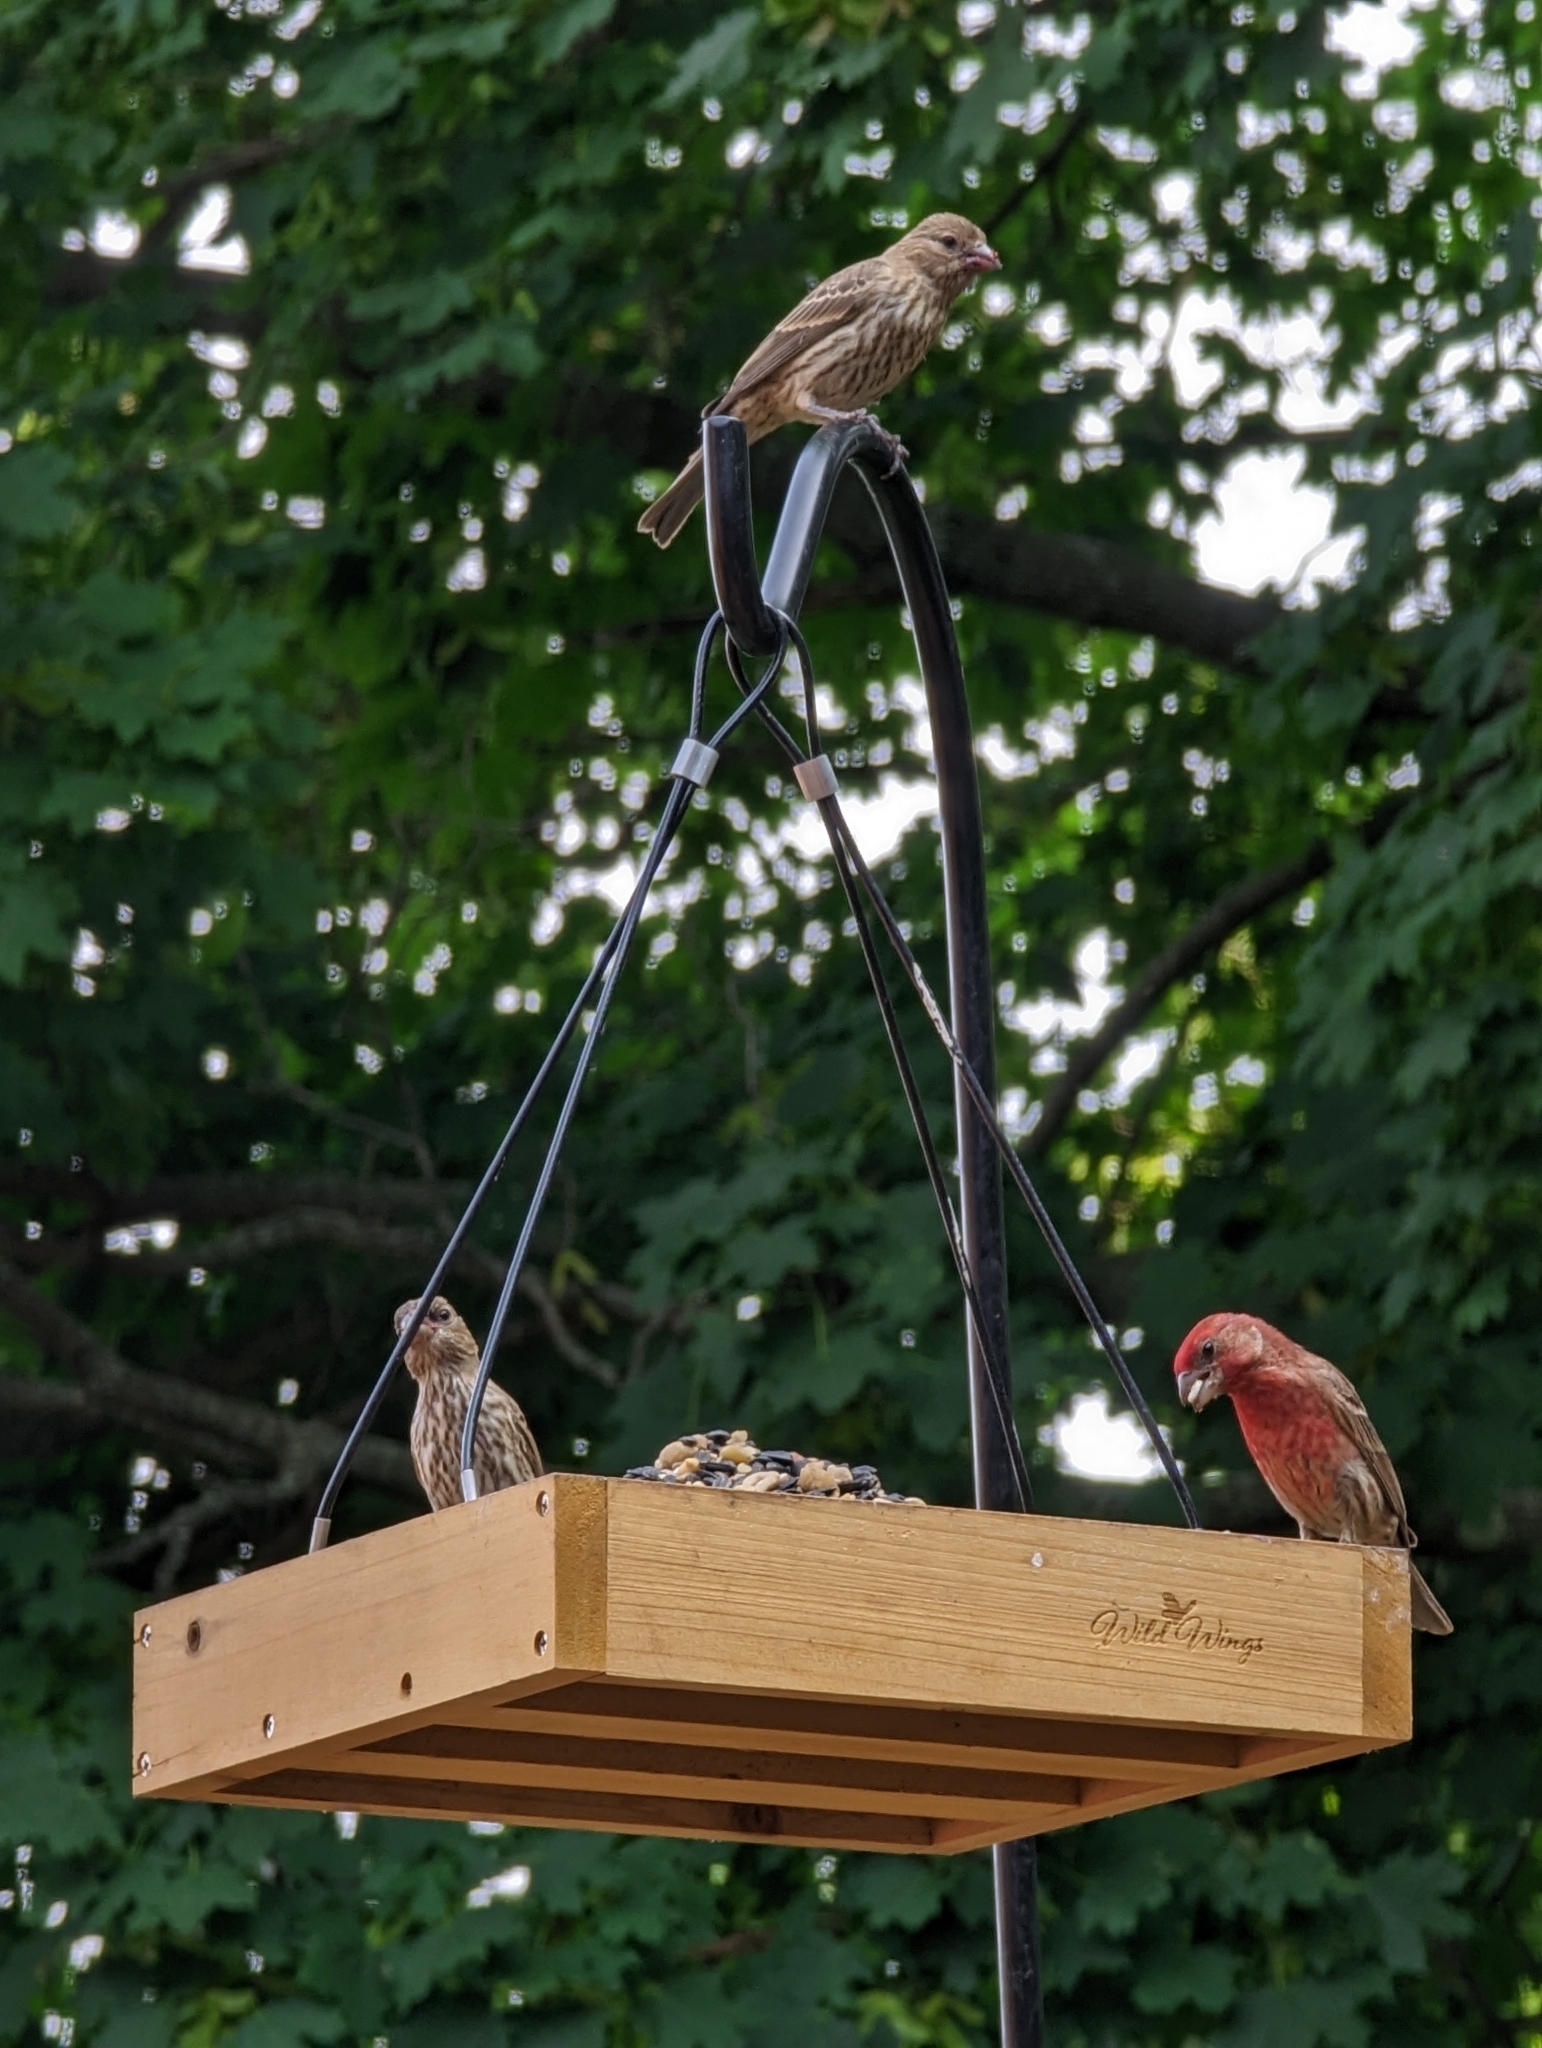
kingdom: Animalia
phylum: Chordata
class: Aves
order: Passeriformes
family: Fringillidae
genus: Haemorhous
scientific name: Haemorhous mexicanus
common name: House finch
